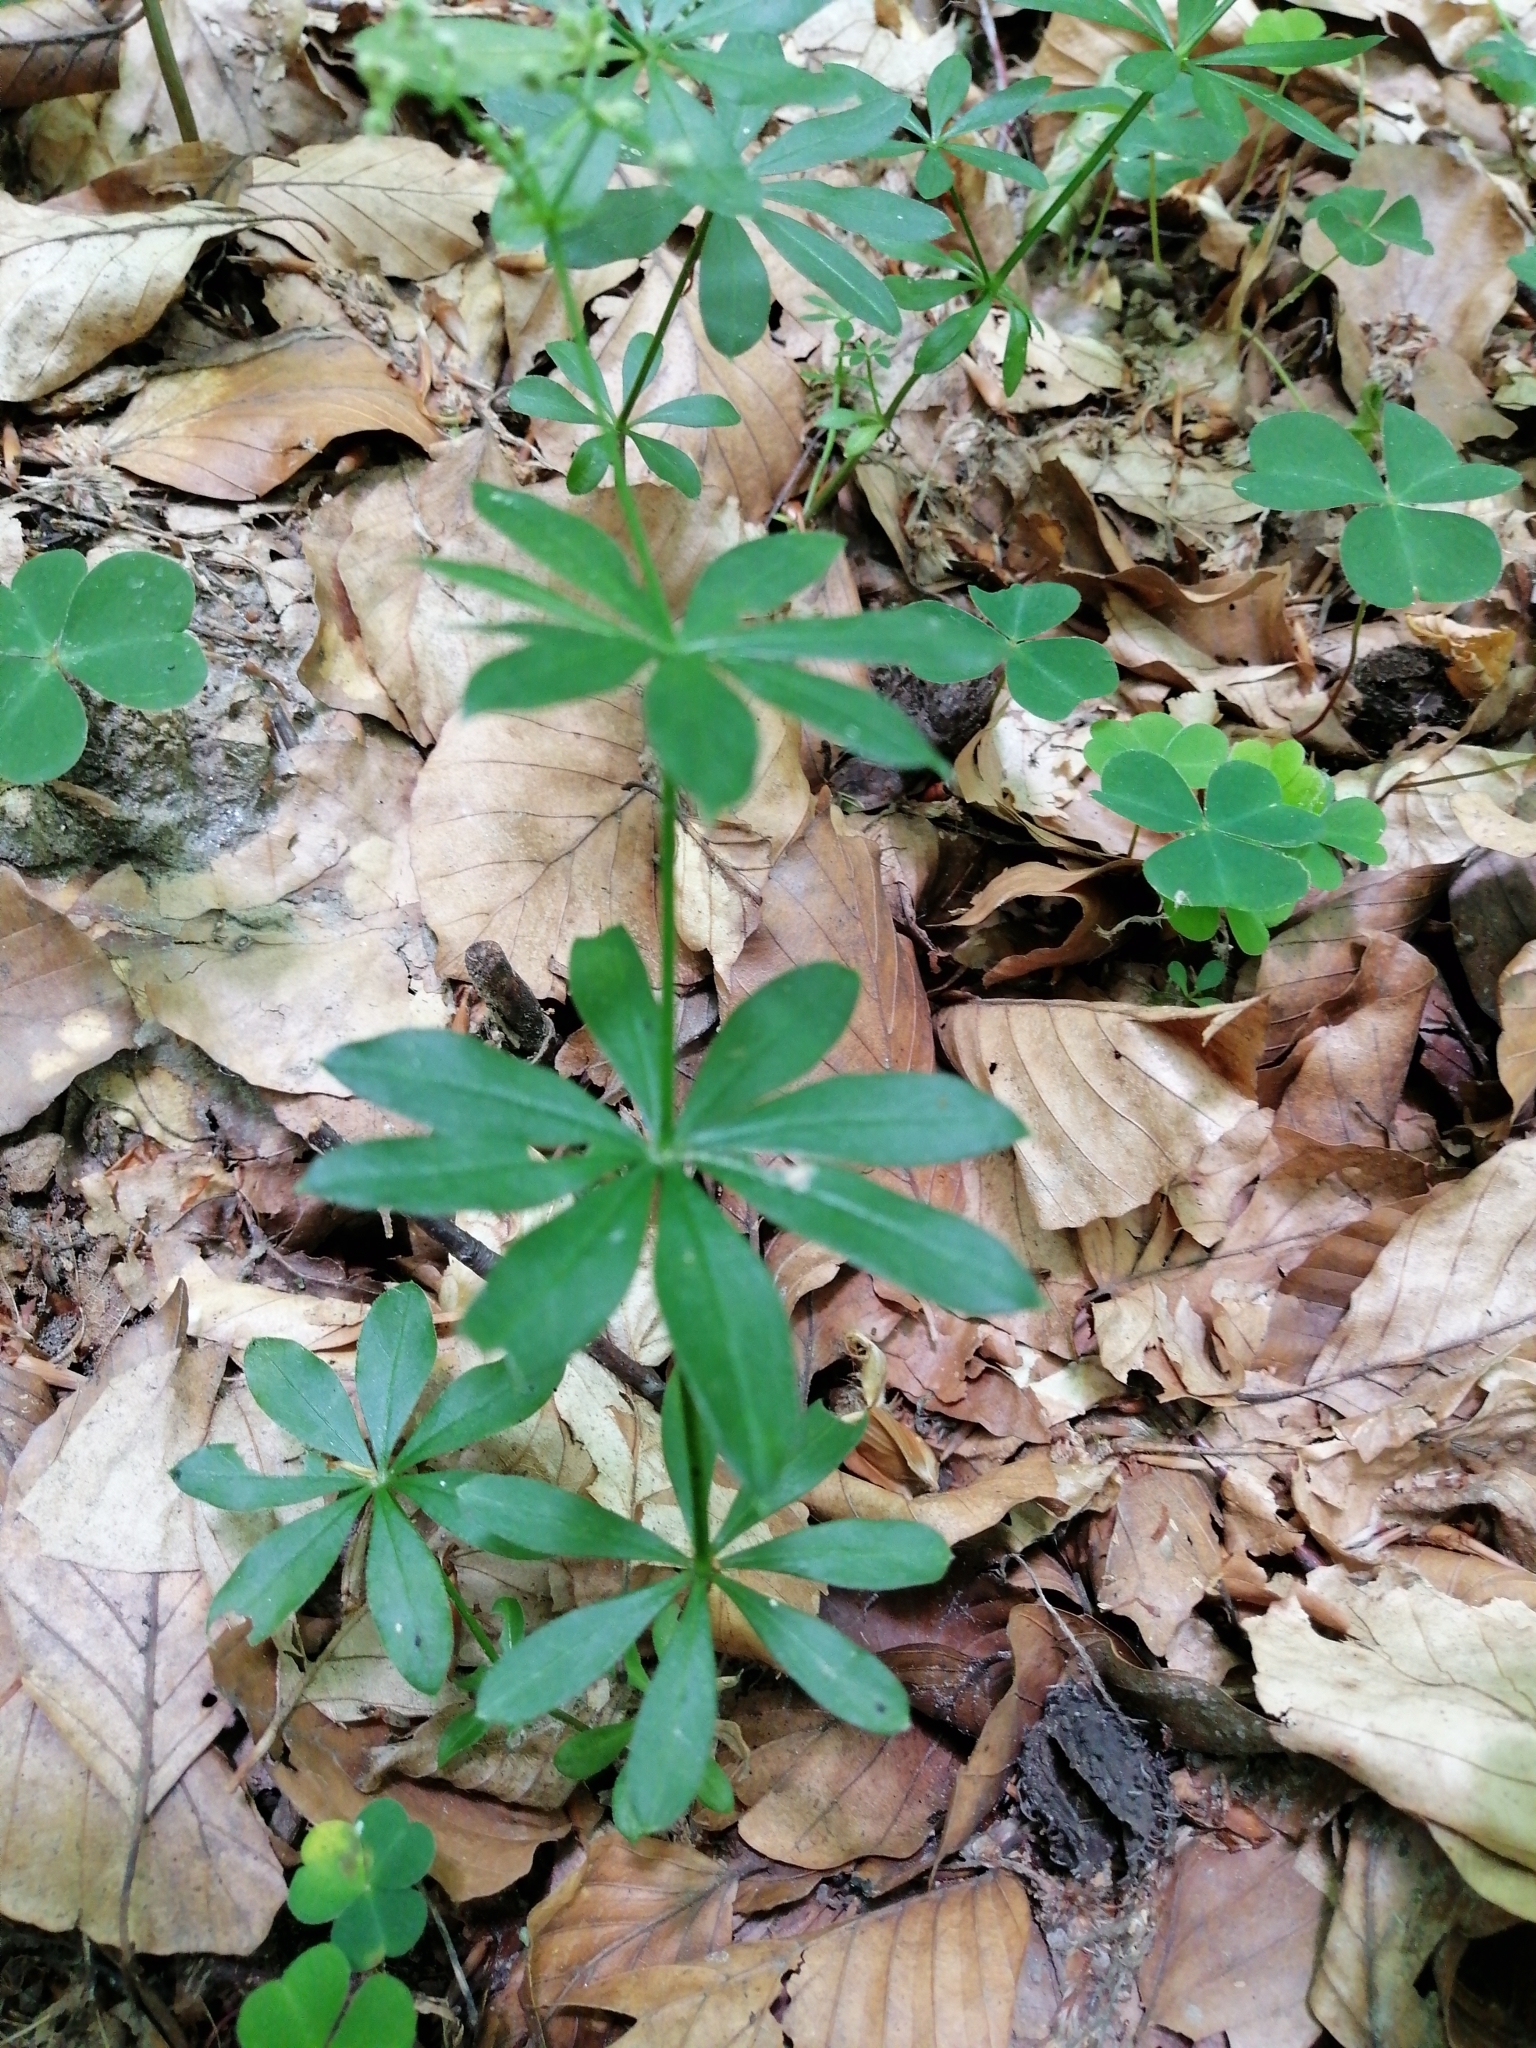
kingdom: Plantae
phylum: Tracheophyta
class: Magnoliopsida
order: Gentianales
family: Rubiaceae
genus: Galium
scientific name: Galium odoratum
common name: Sweet woodruff
